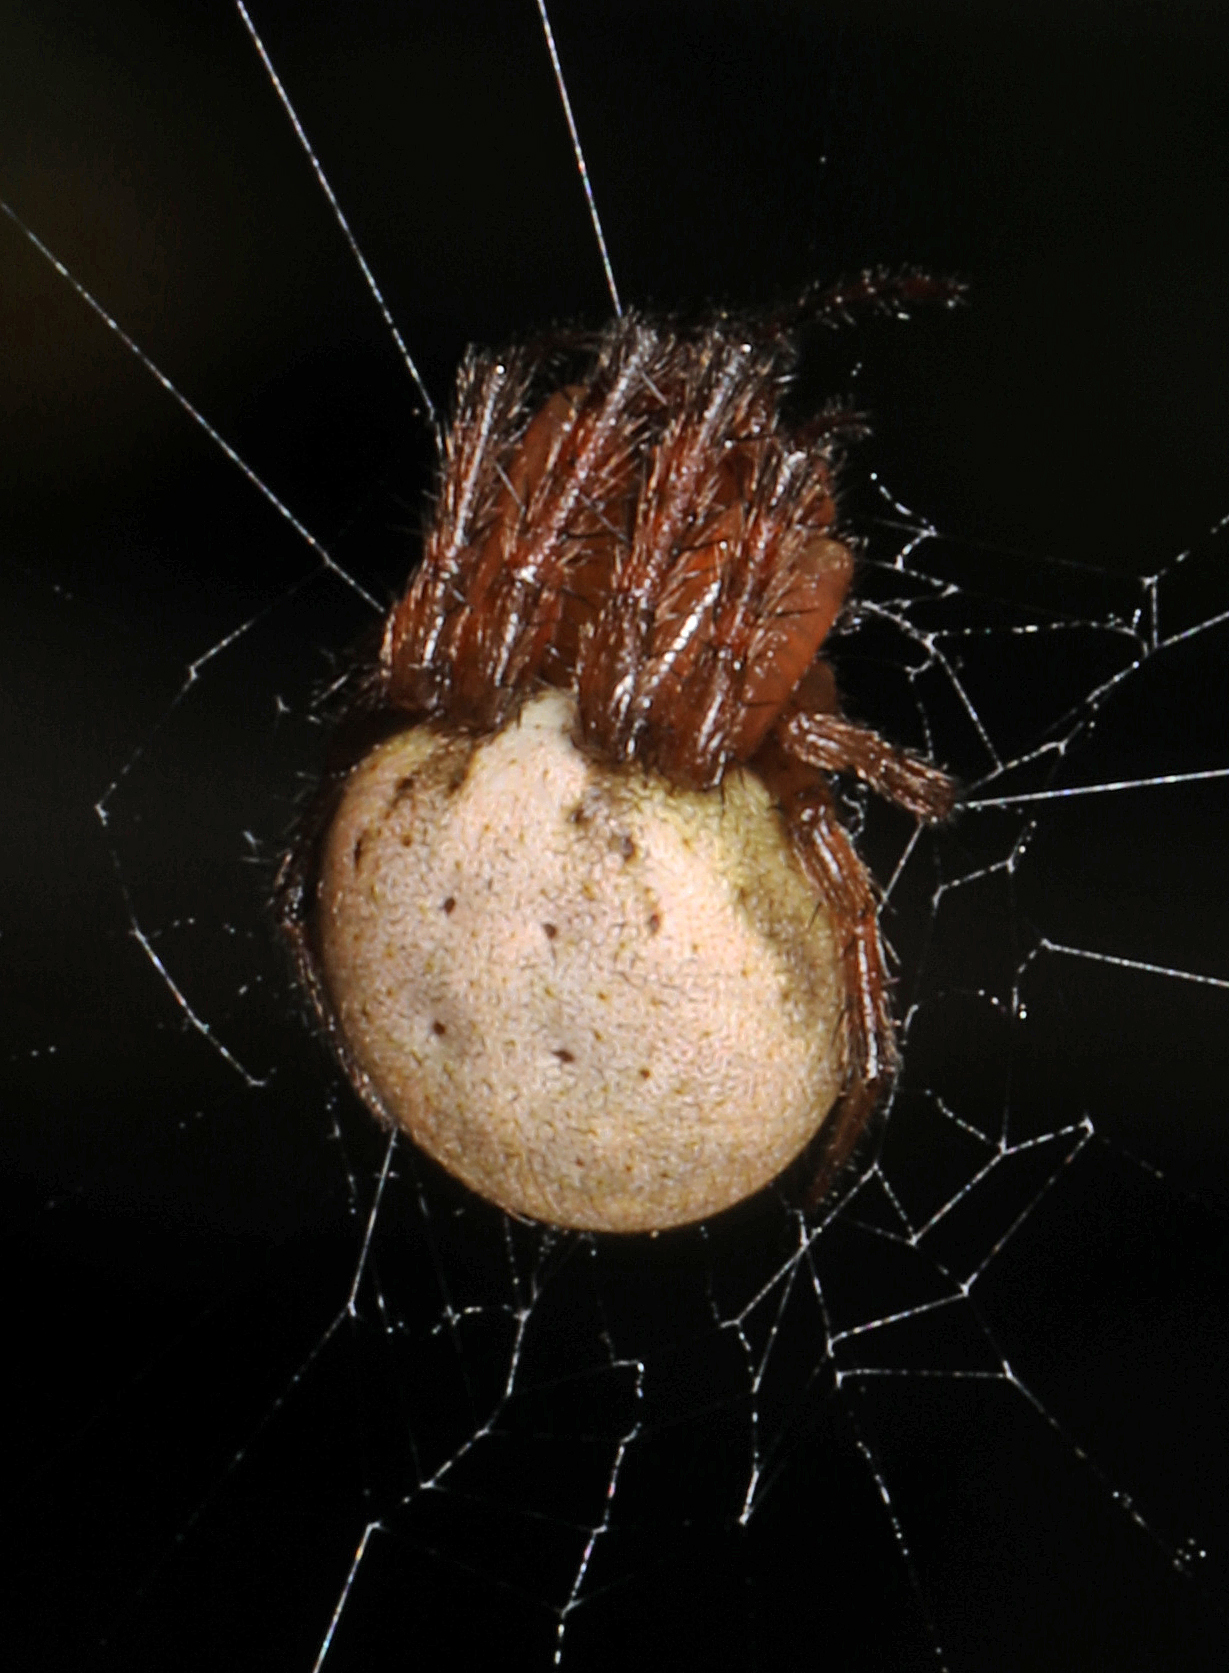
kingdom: Animalia
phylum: Arthropoda
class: Arachnida
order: Araneae
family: Araneidae
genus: Metazygia
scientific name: Metazygia zilloides
